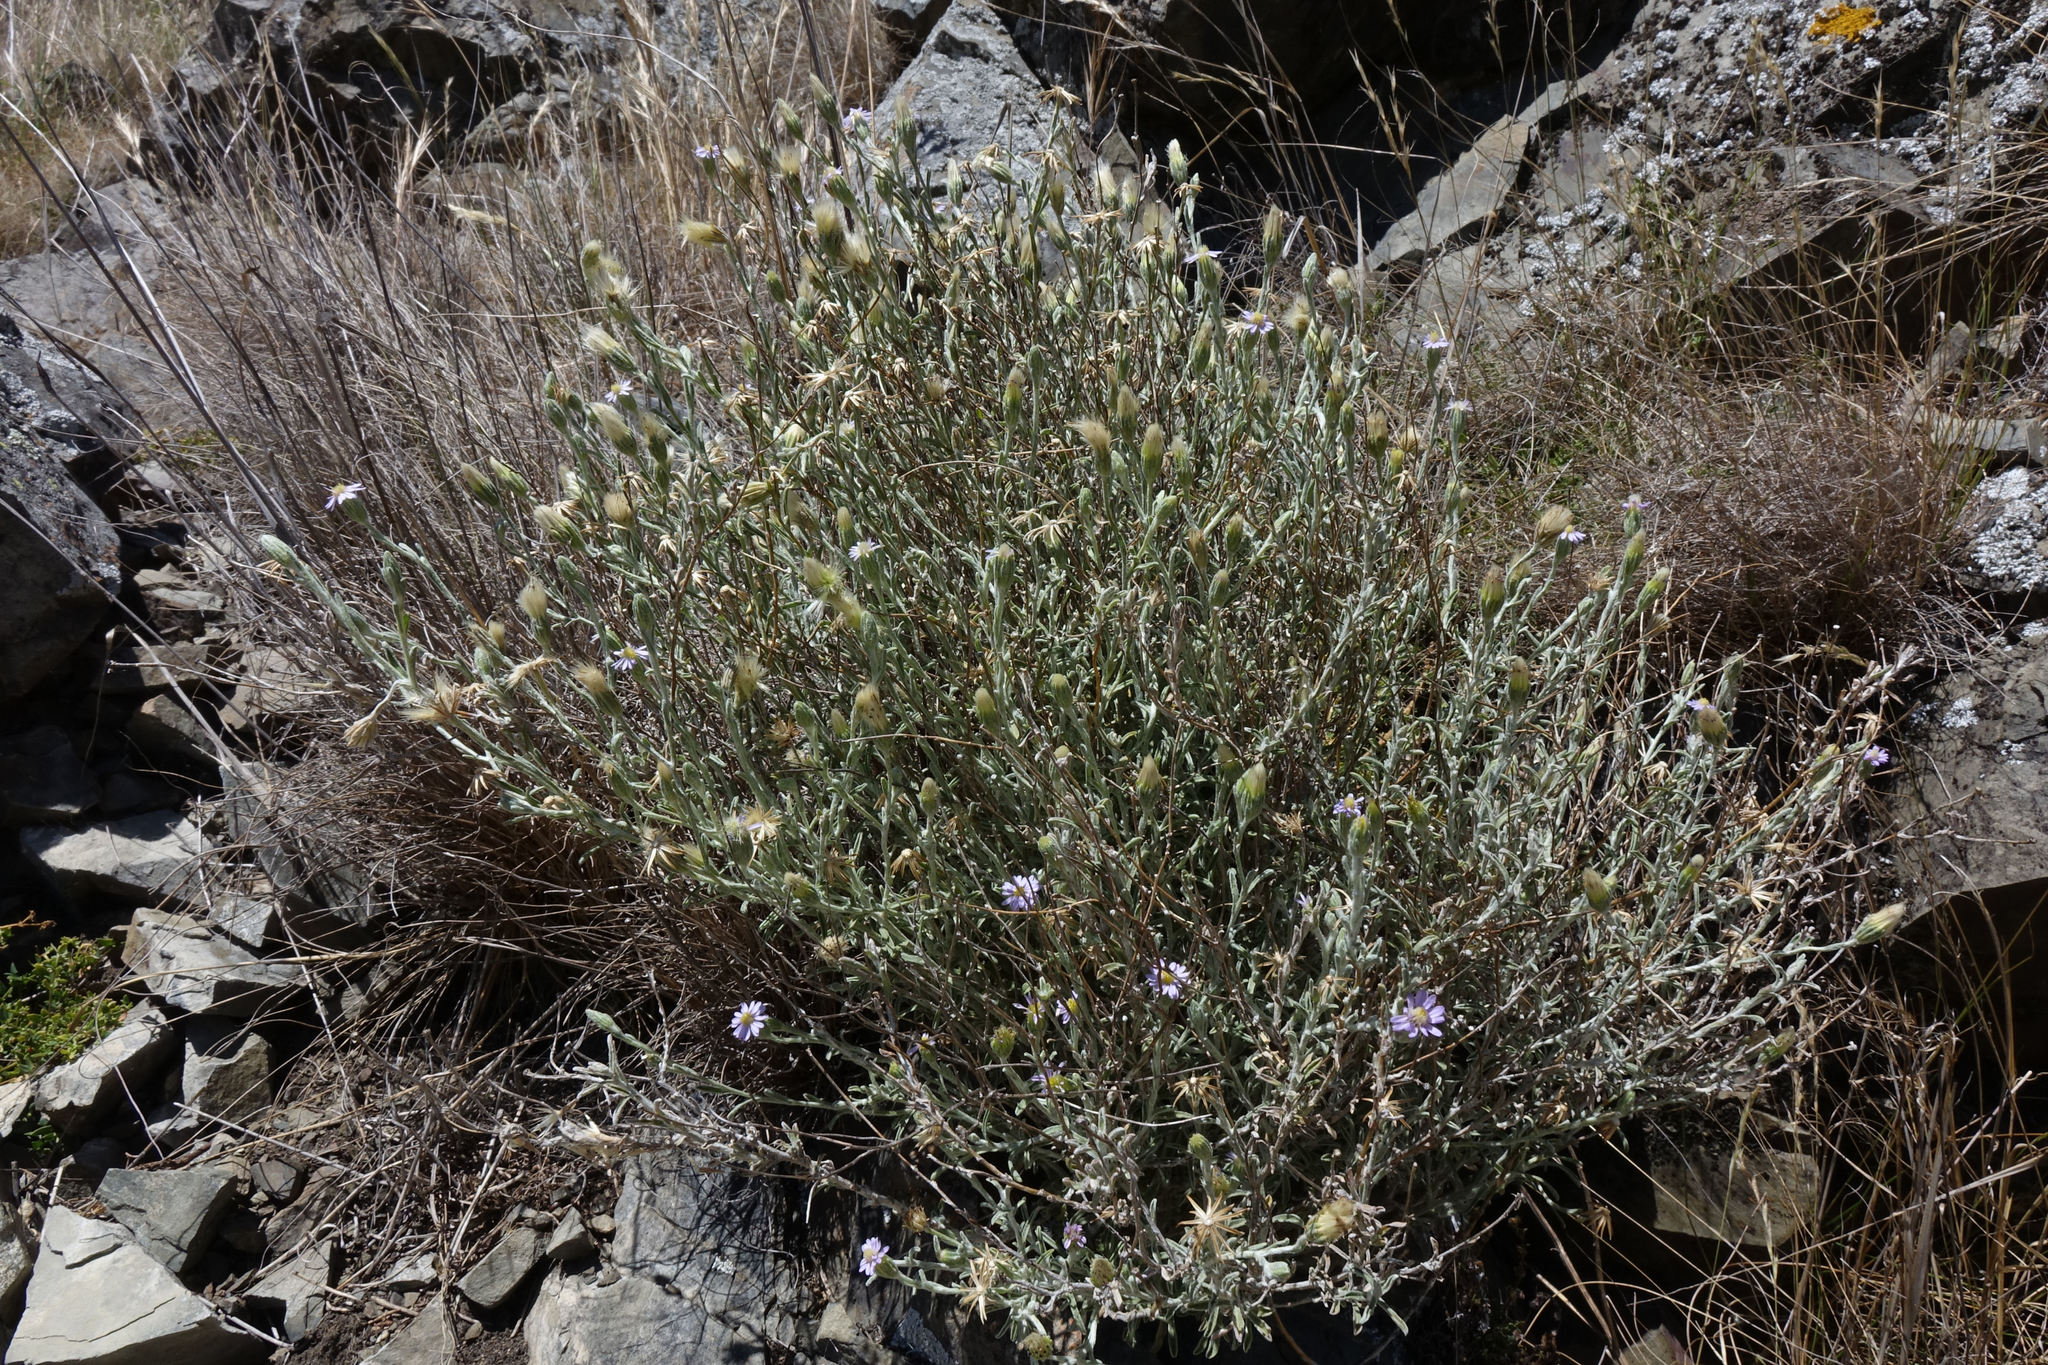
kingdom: Plantae
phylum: Tracheophyta
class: Magnoliopsida
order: Asterales
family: Asteraceae
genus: Vittadinia
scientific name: Vittadinia gracilis
